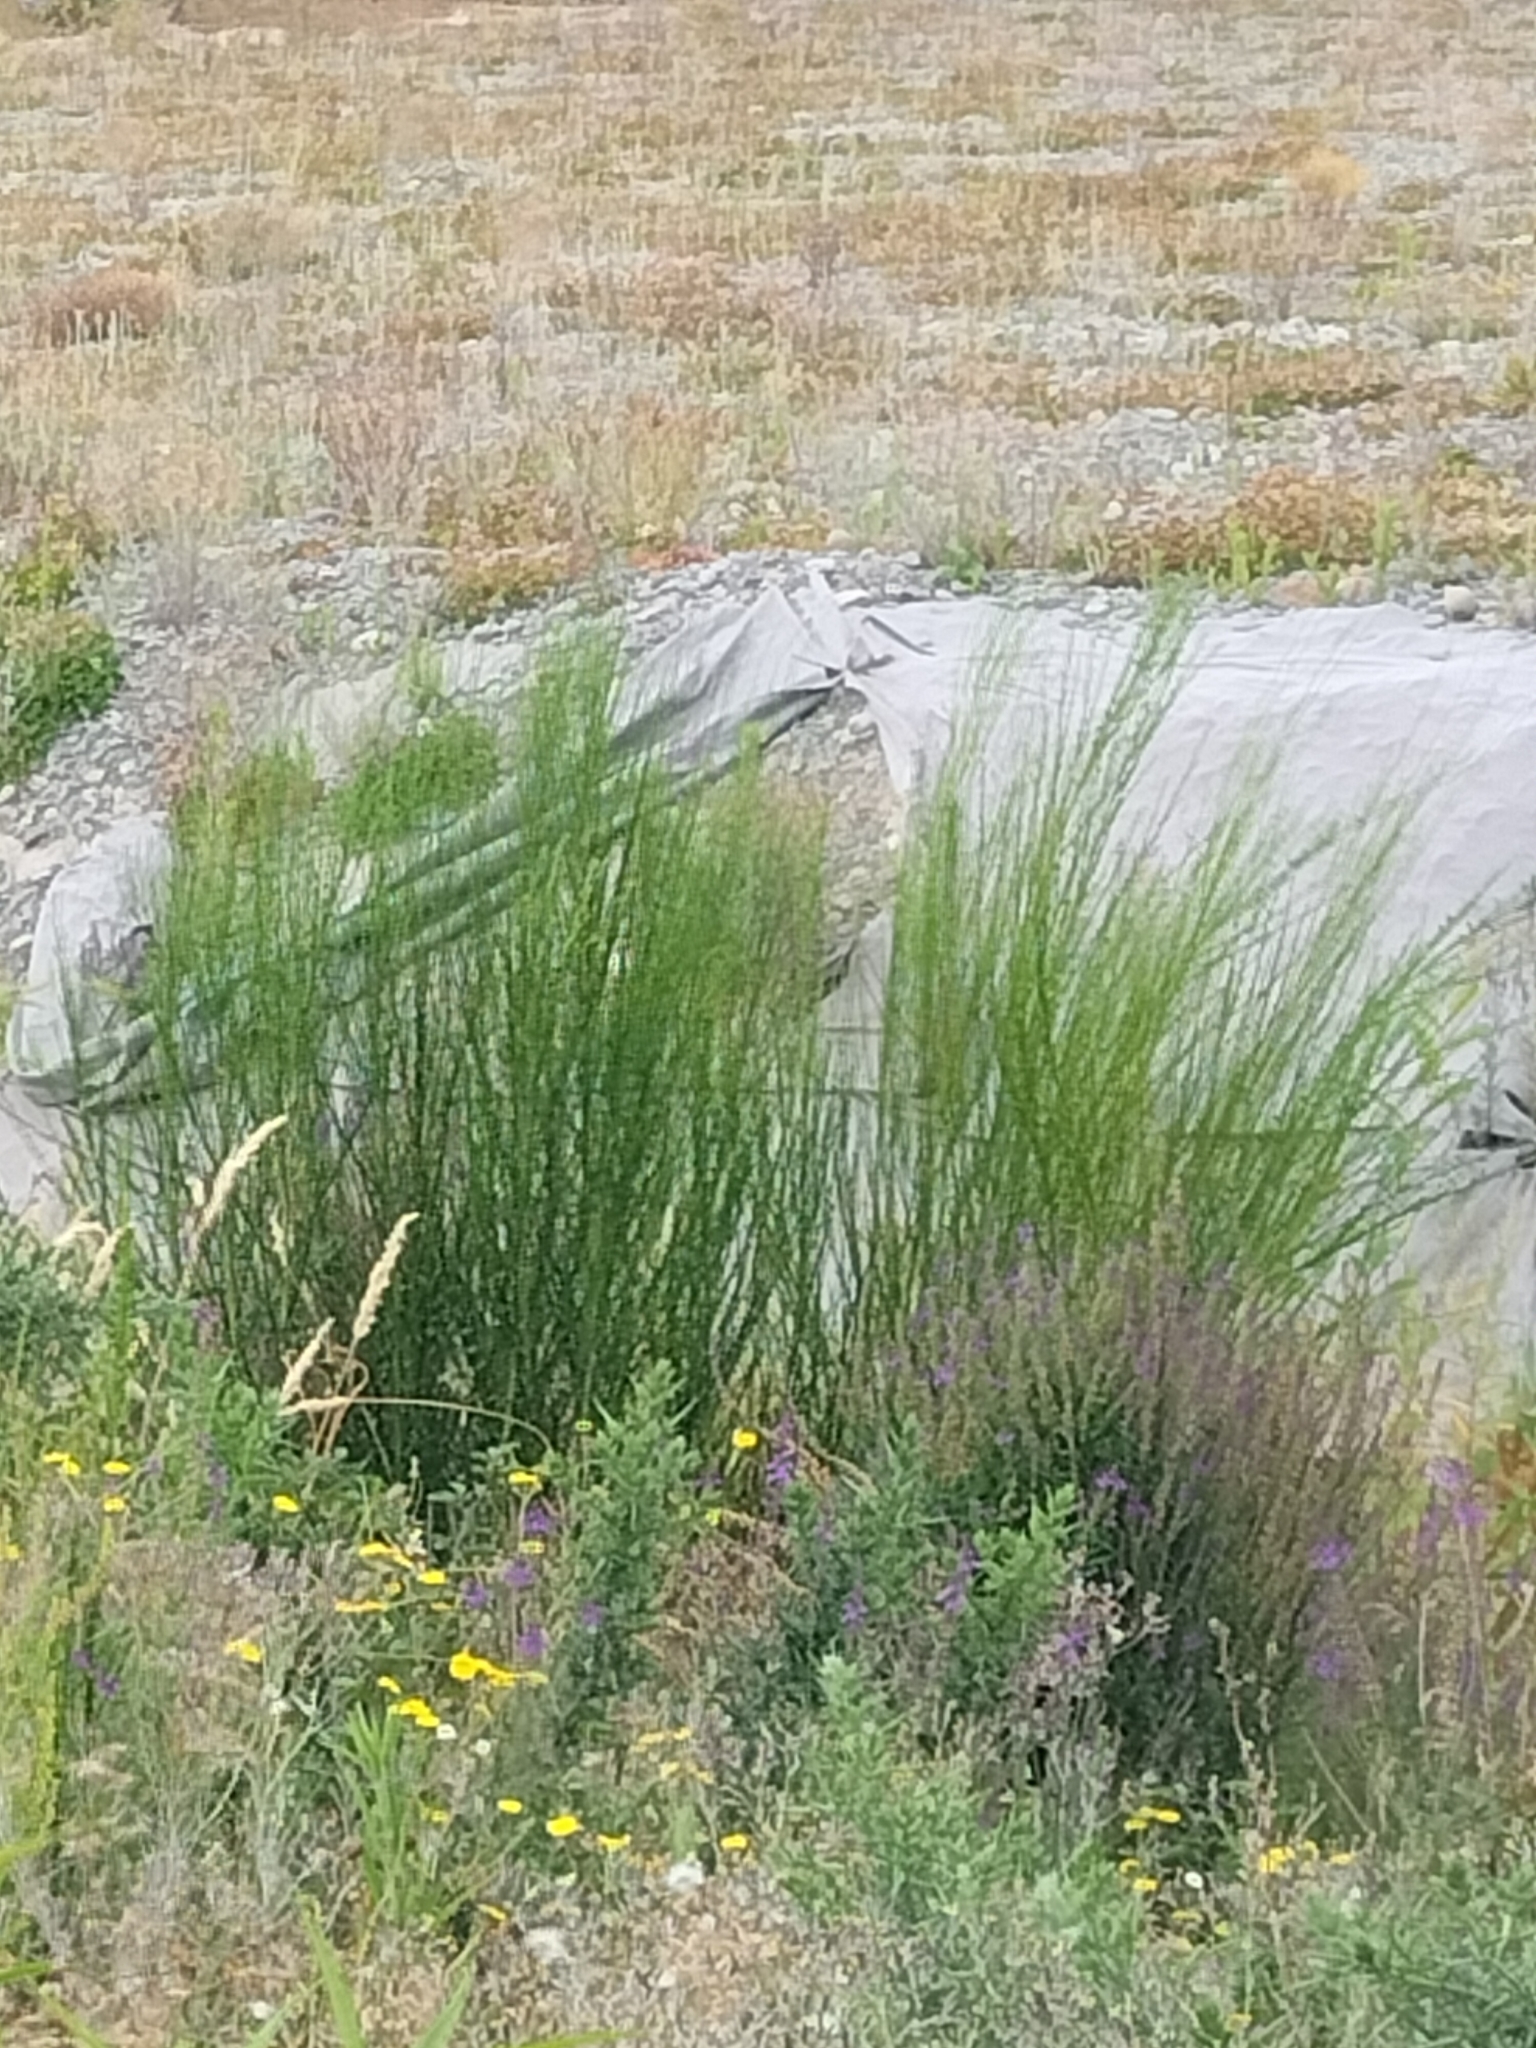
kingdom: Plantae
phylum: Tracheophyta
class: Magnoliopsida
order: Fabales
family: Fabaceae
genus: Cytisus
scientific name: Cytisus scoparius
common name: Scotch broom
